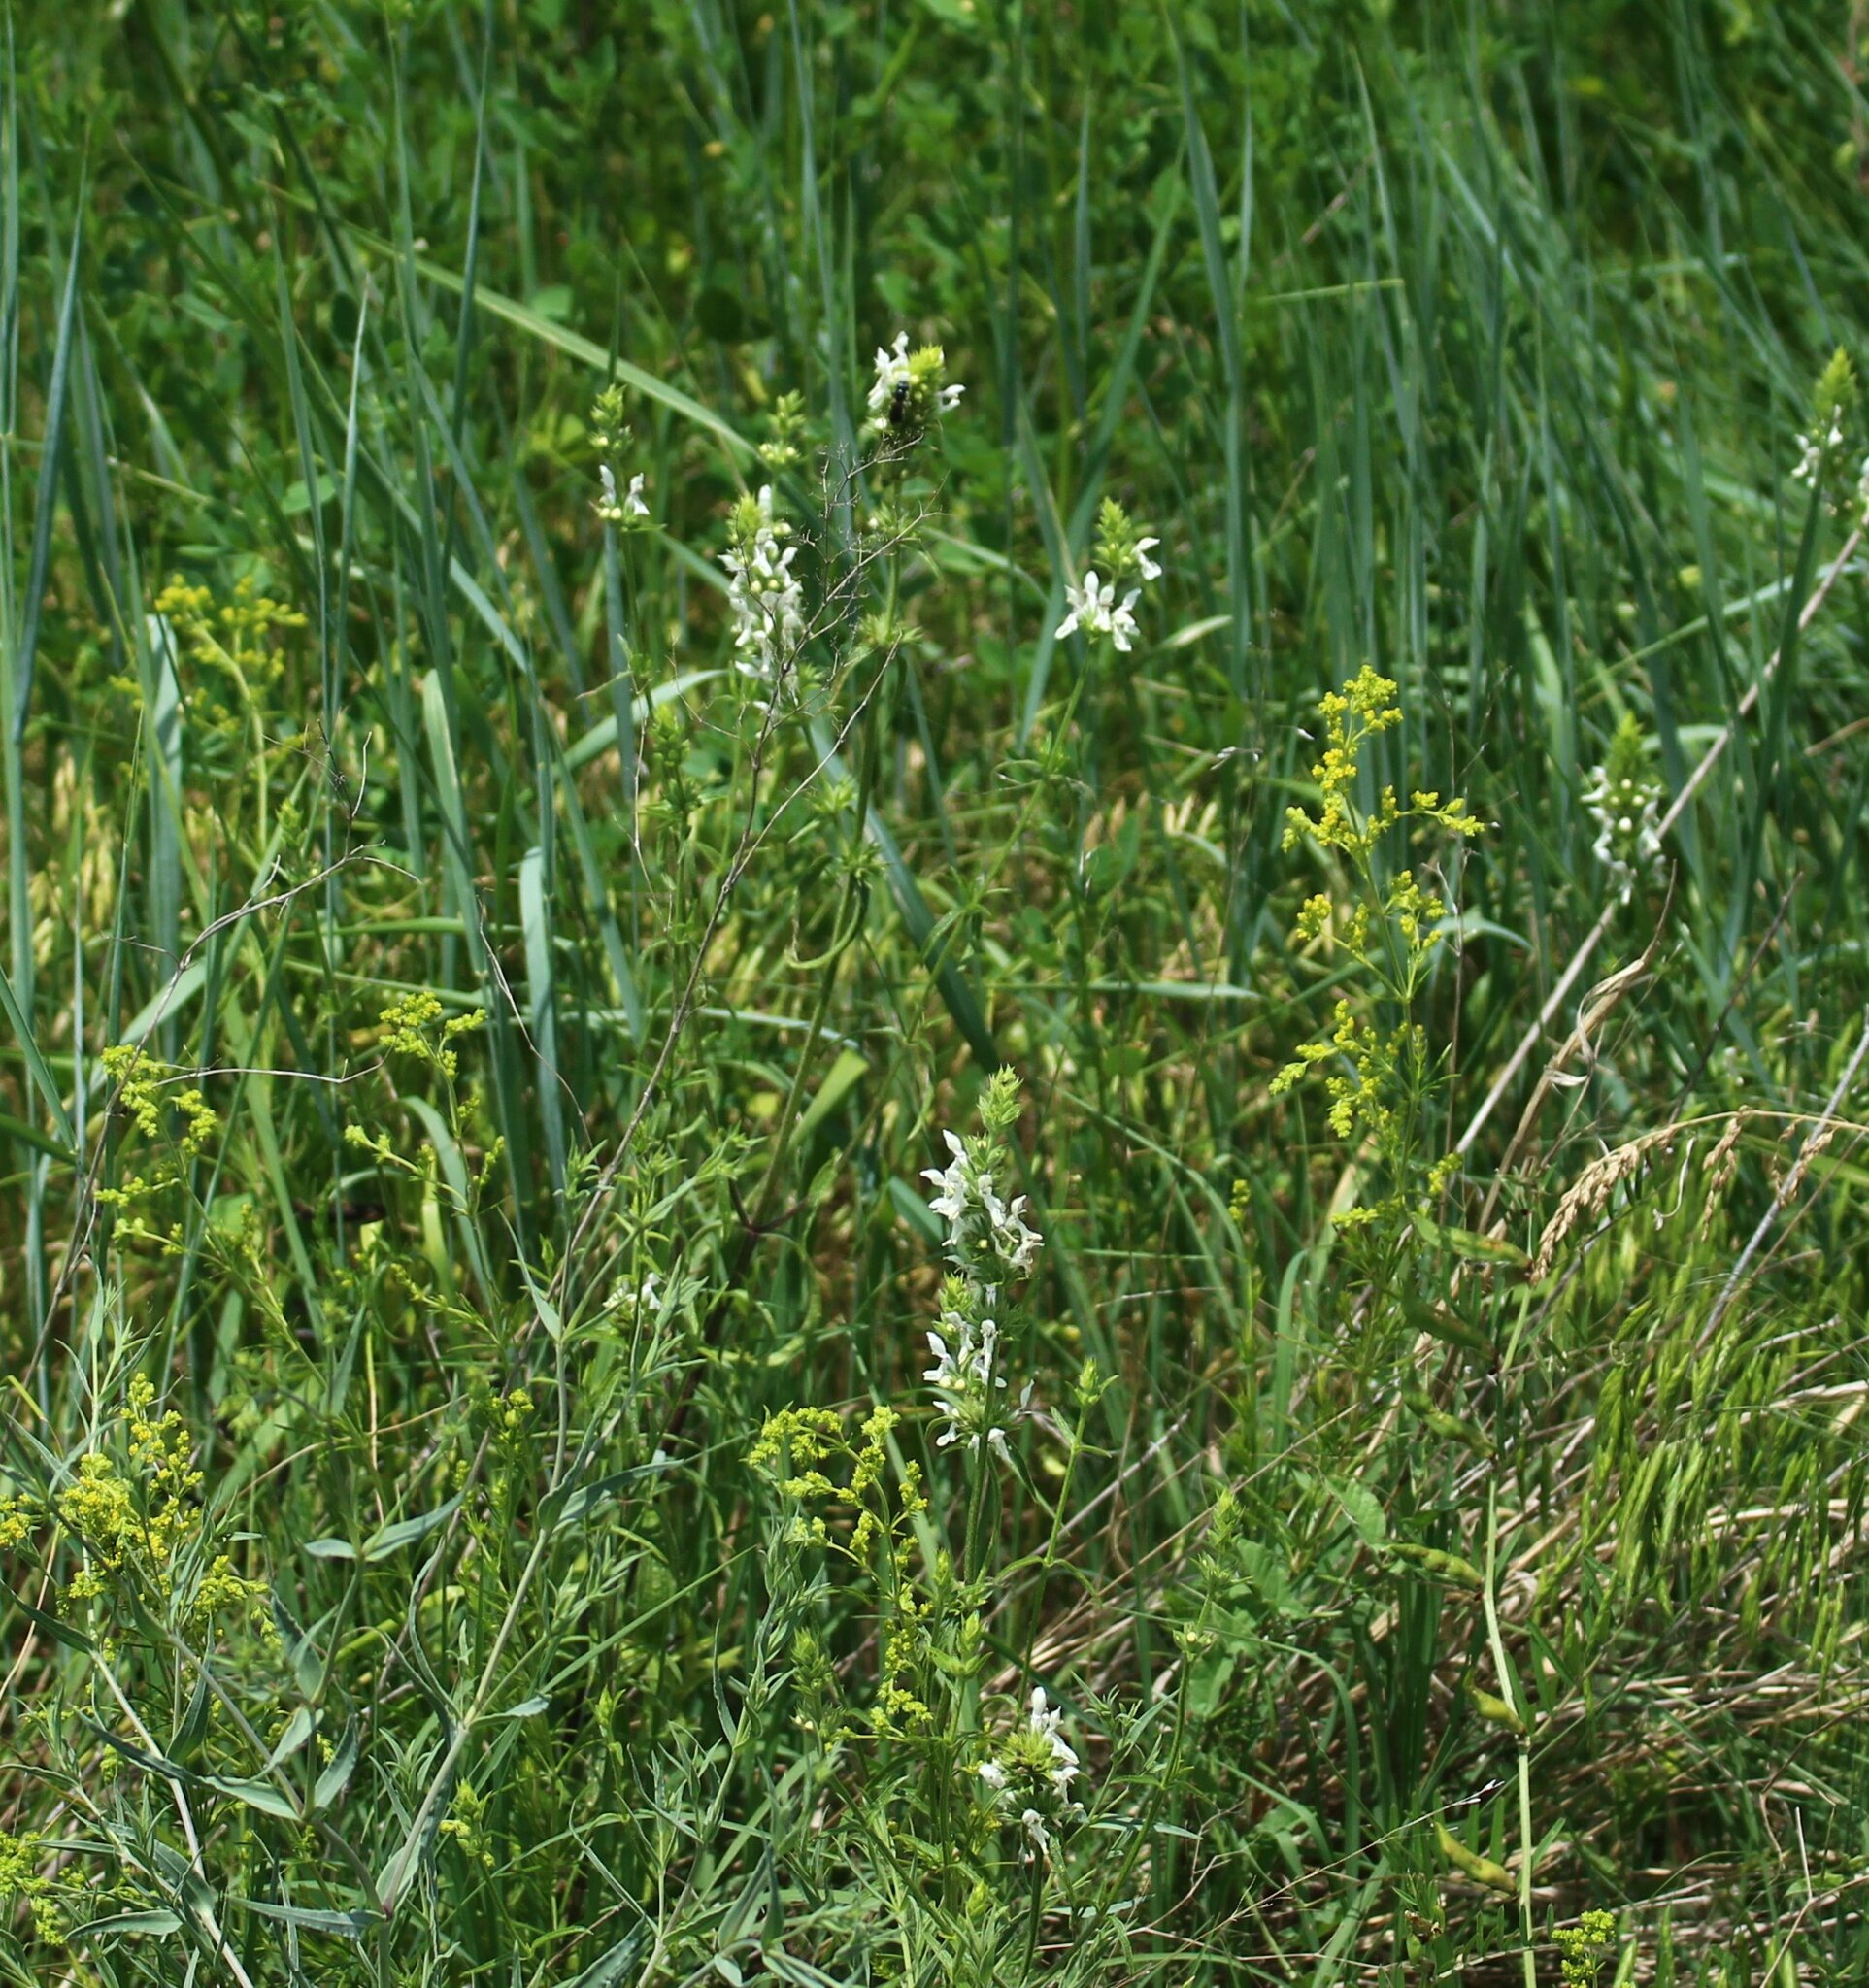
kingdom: Plantae
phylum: Tracheophyta
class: Magnoliopsida
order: Lamiales
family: Lamiaceae
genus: Stachys
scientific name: Stachys atherocalyx
